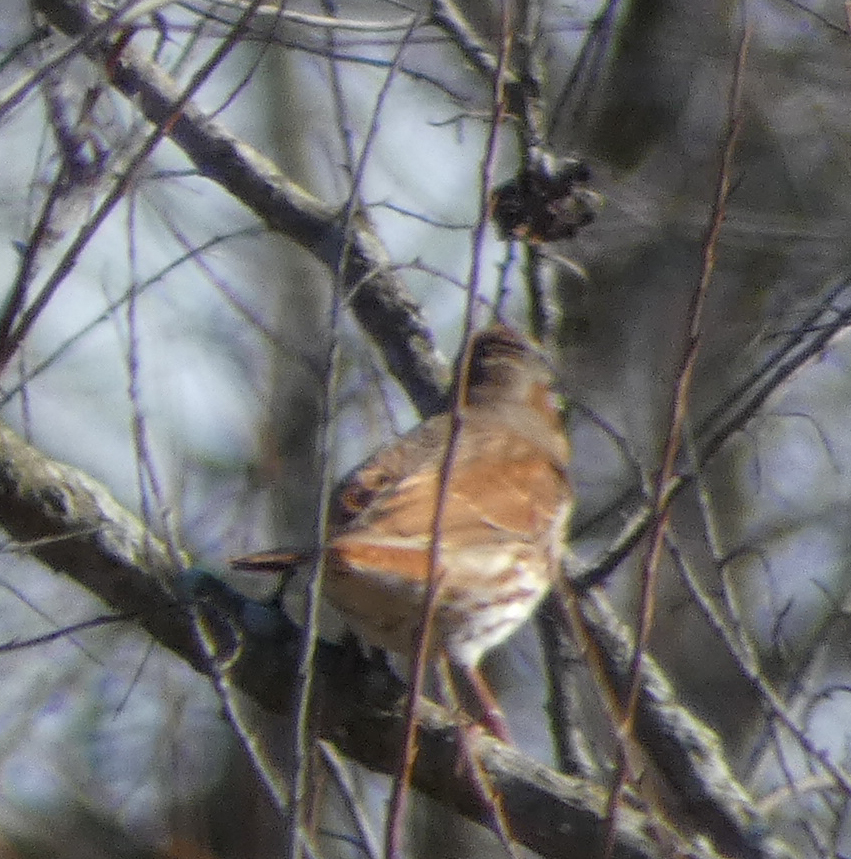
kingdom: Animalia
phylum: Chordata
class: Aves
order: Passeriformes
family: Passerellidae
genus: Passerella
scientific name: Passerella iliaca
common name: Fox sparrow
